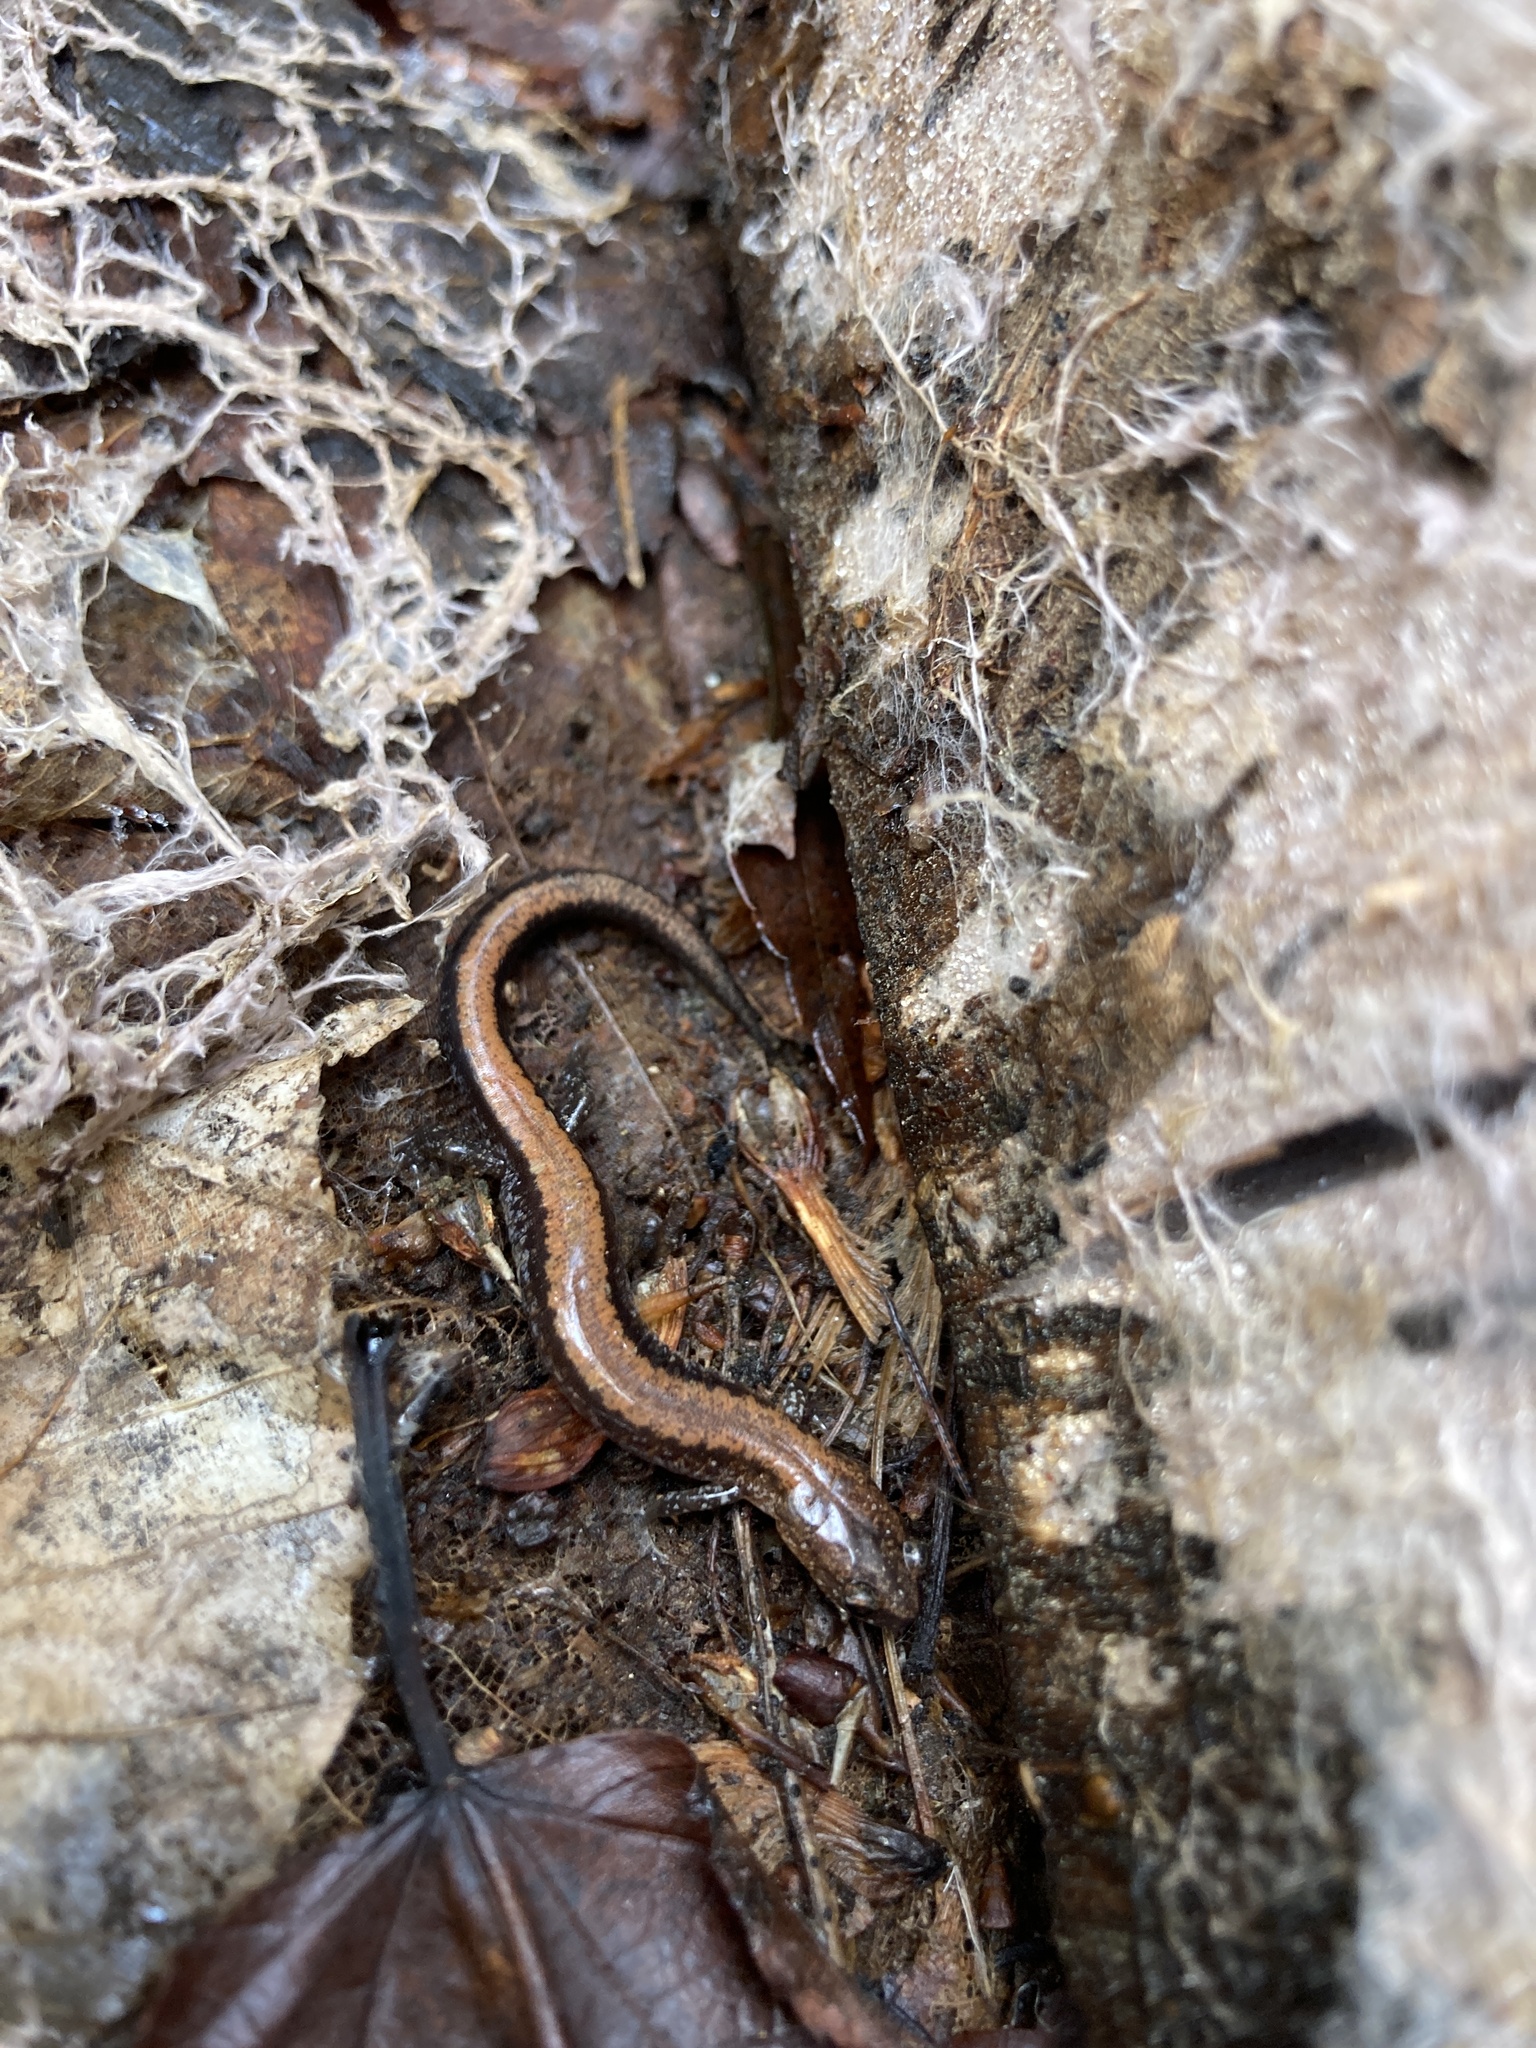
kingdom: Animalia
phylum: Chordata
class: Amphibia
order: Caudata
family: Plethodontidae
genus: Plethodon
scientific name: Plethodon cinereus
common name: Redback salamander
